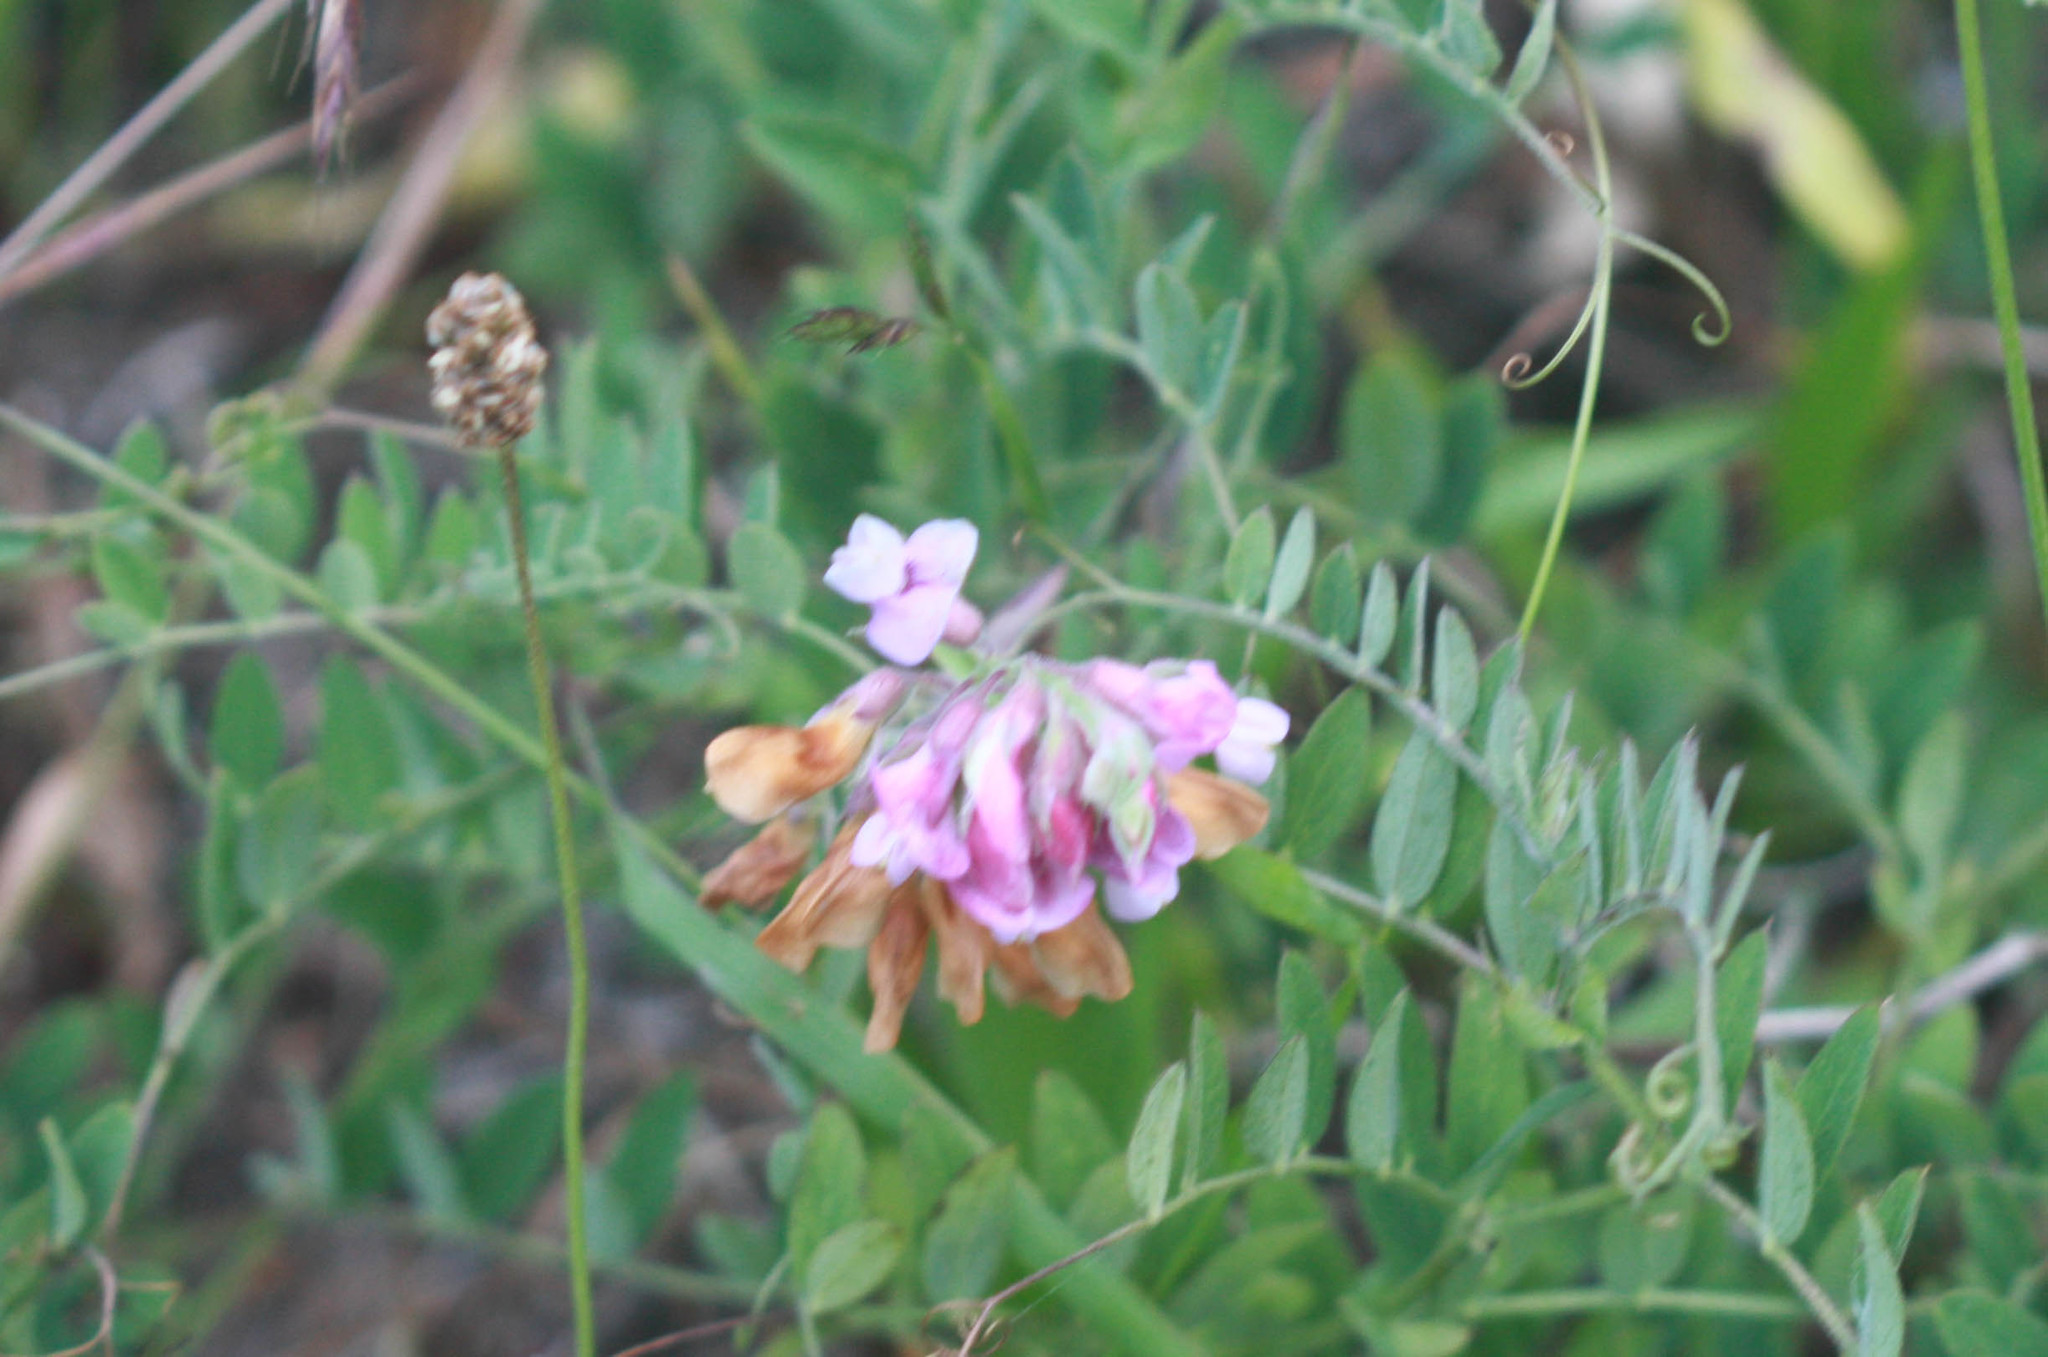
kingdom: Plantae
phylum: Tracheophyta
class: Magnoliopsida
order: Fabales
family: Fabaceae
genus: Lathyrus
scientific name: Lathyrus vestitus
